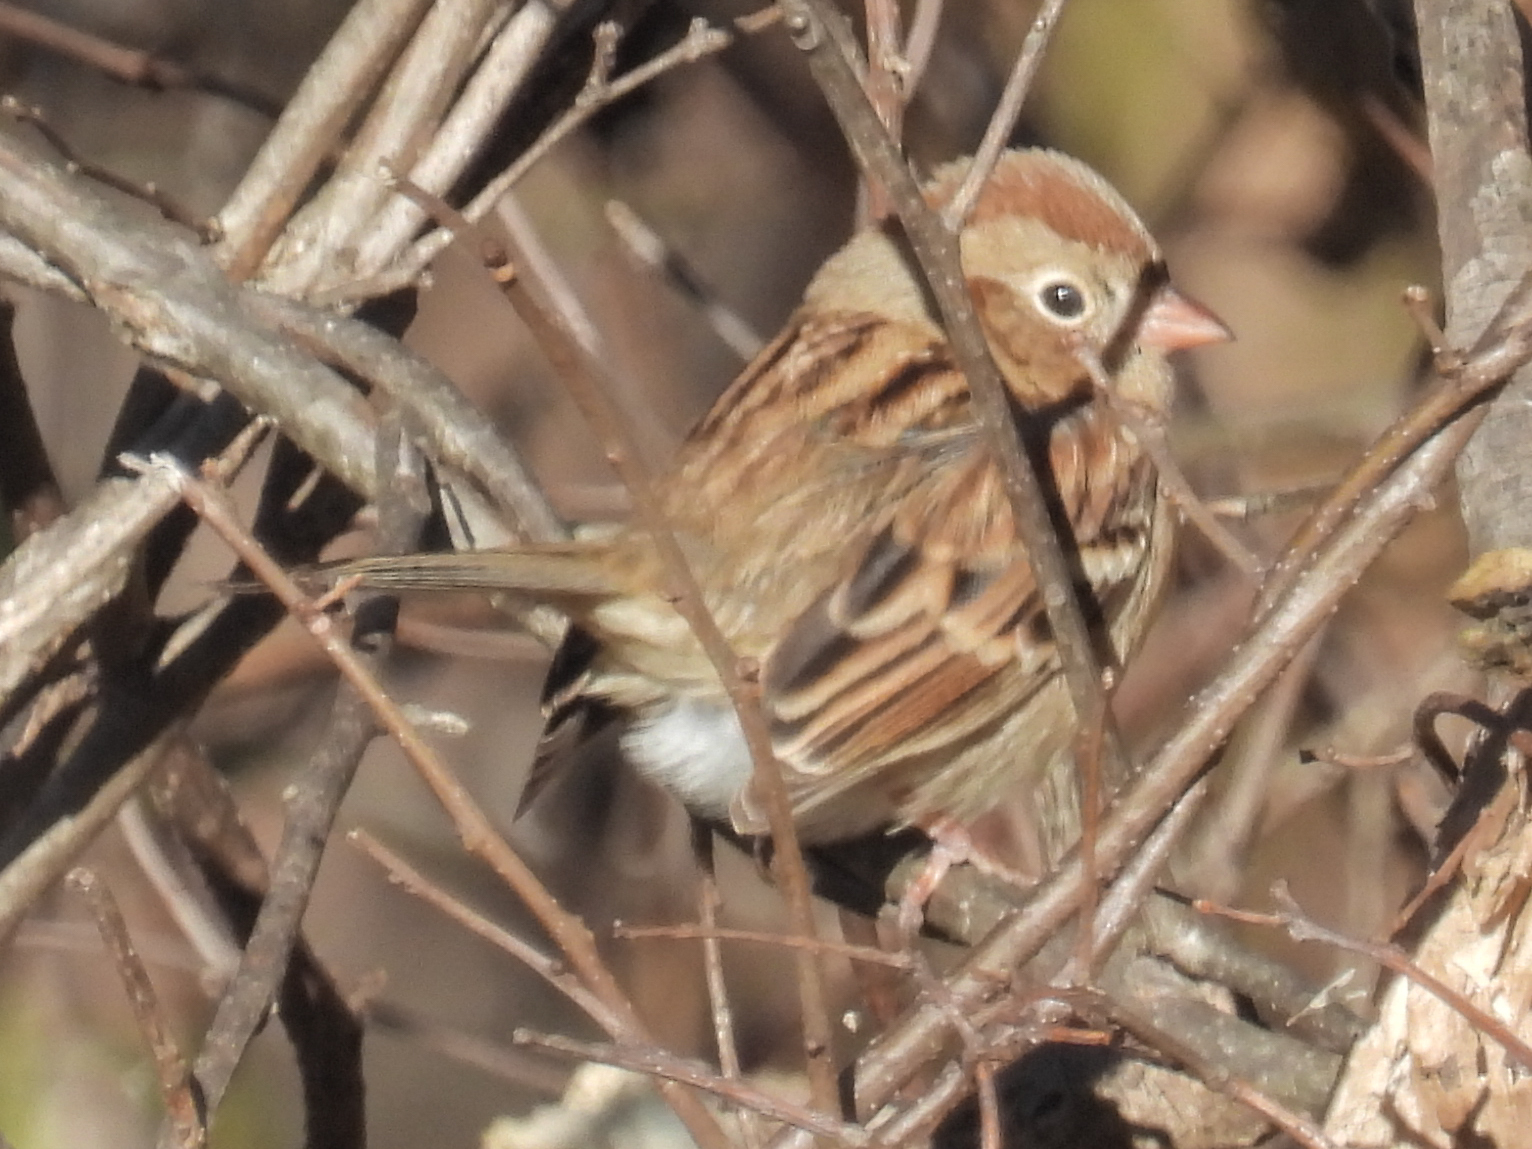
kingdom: Animalia
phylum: Chordata
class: Aves
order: Passeriformes
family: Passerellidae
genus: Spizella
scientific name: Spizella pusilla
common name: Field sparrow
